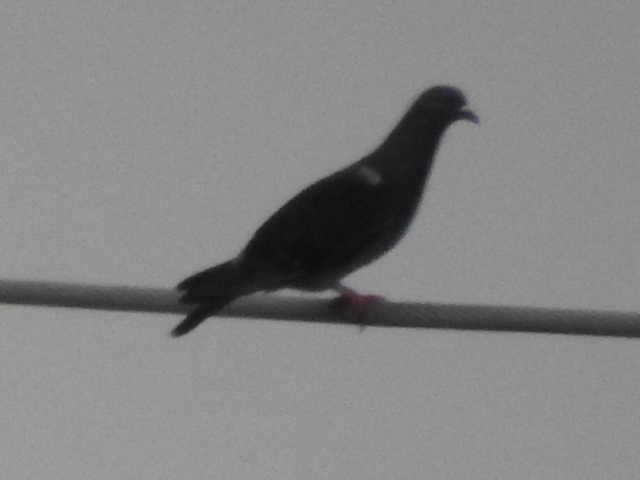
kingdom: Animalia
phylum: Chordata
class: Aves
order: Columbiformes
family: Columbidae
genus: Columba
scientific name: Columba livia
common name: Rock pigeon
